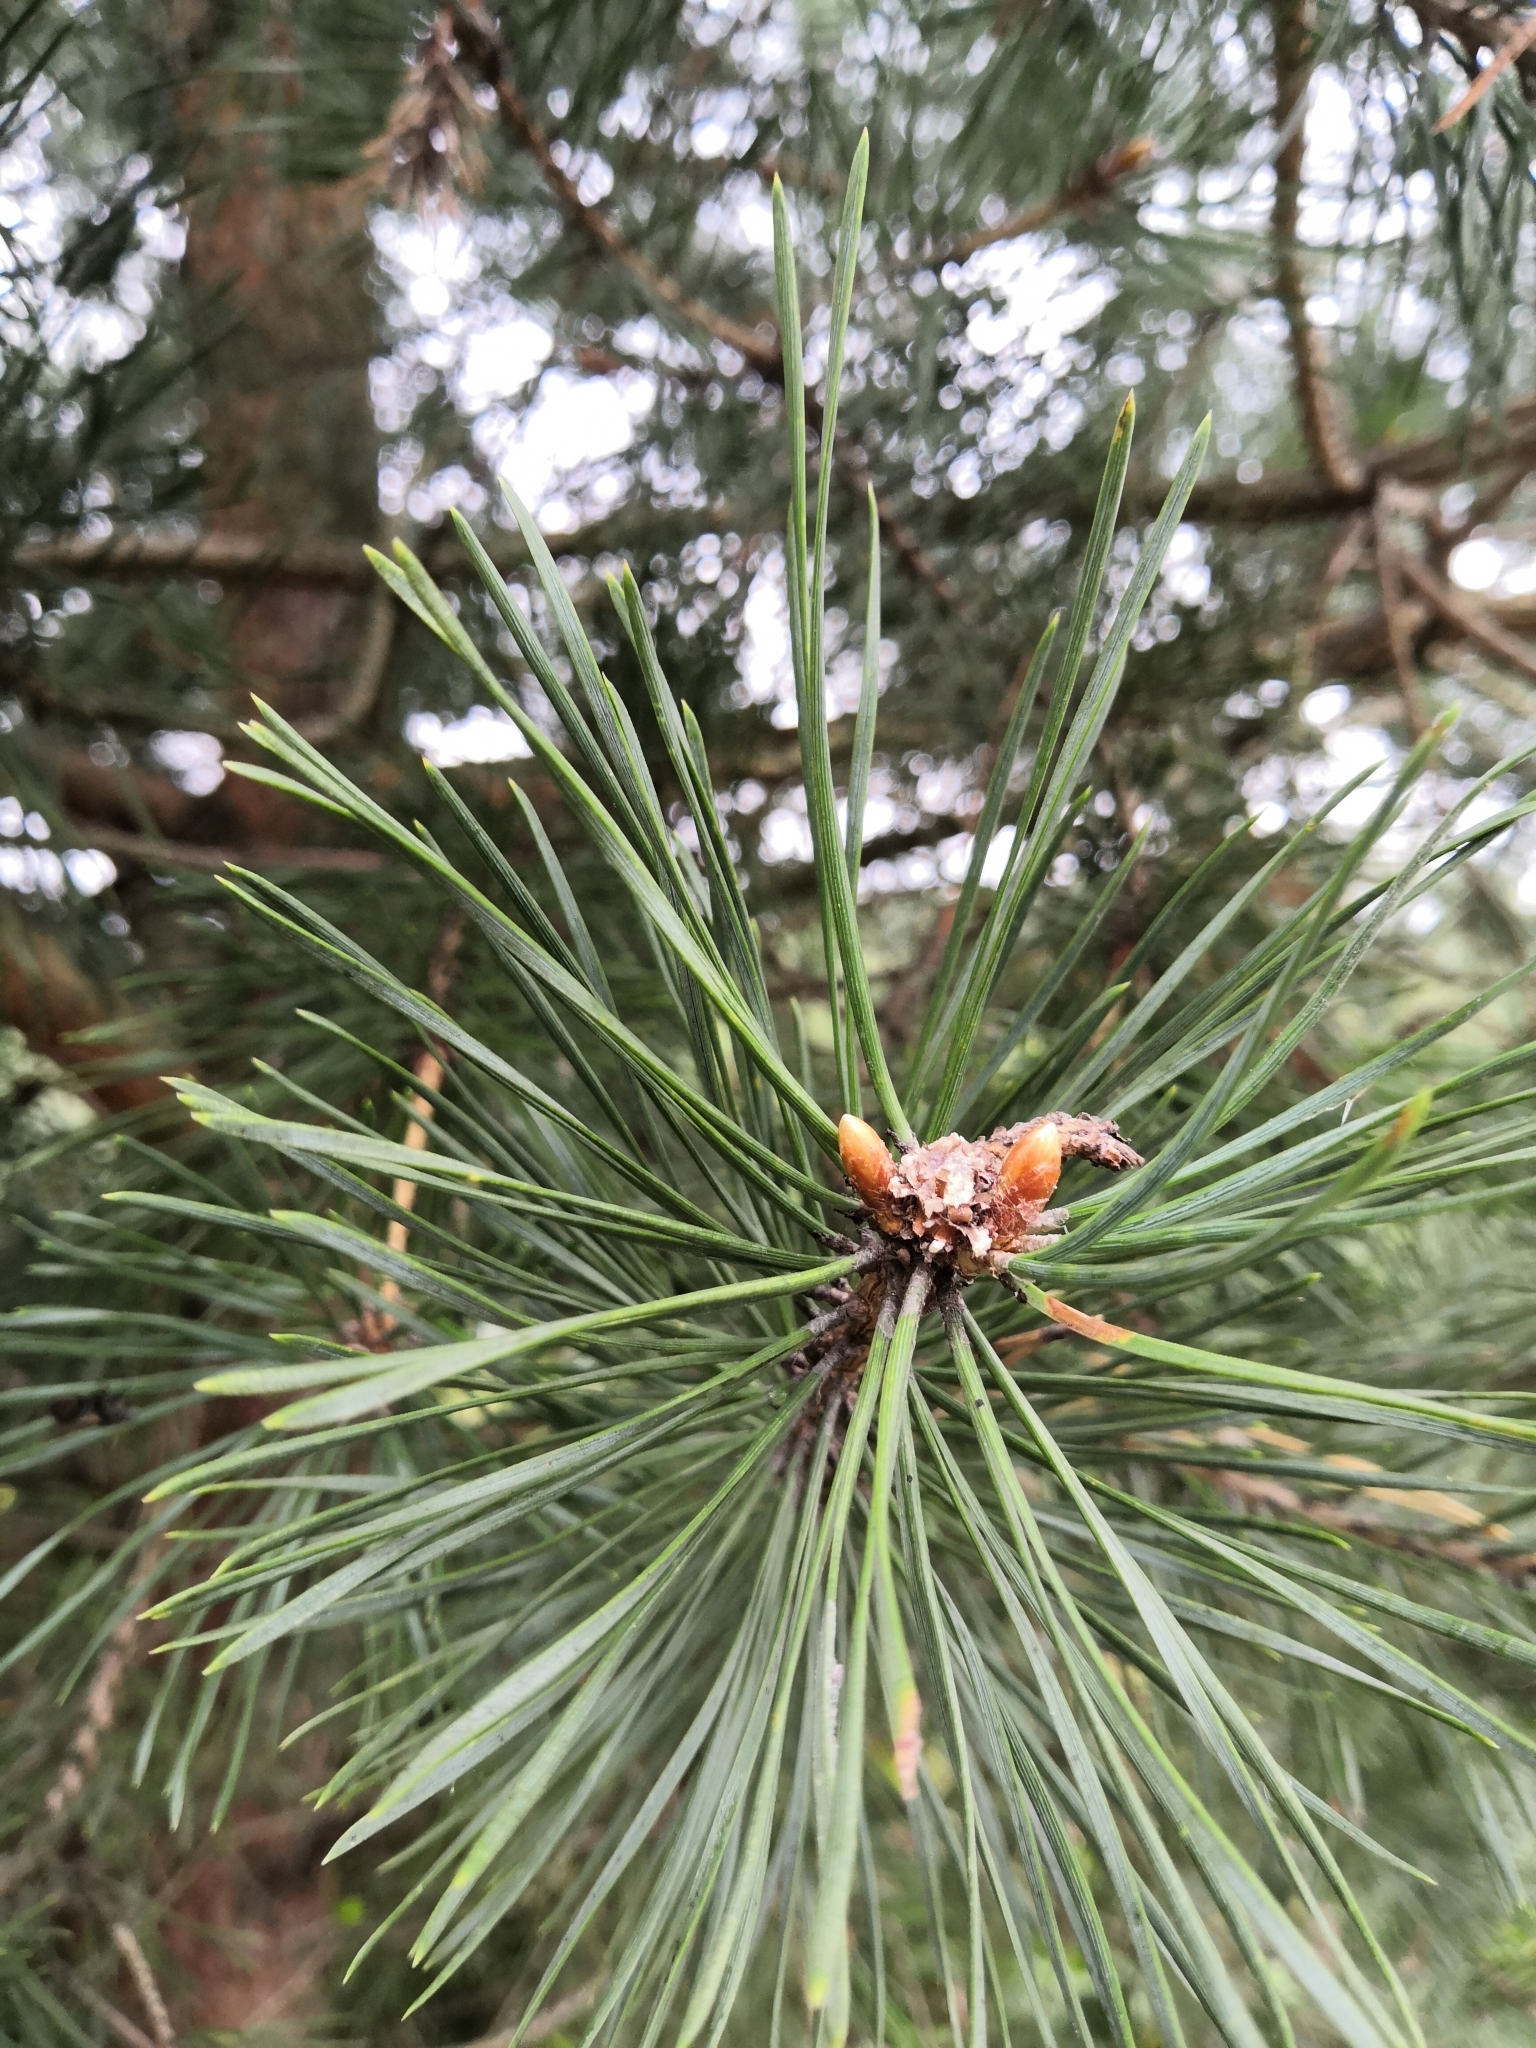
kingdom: Plantae
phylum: Tracheophyta
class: Pinopsida
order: Pinales
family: Pinaceae
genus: Pinus
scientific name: Pinus sylvestris
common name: Scots pine
